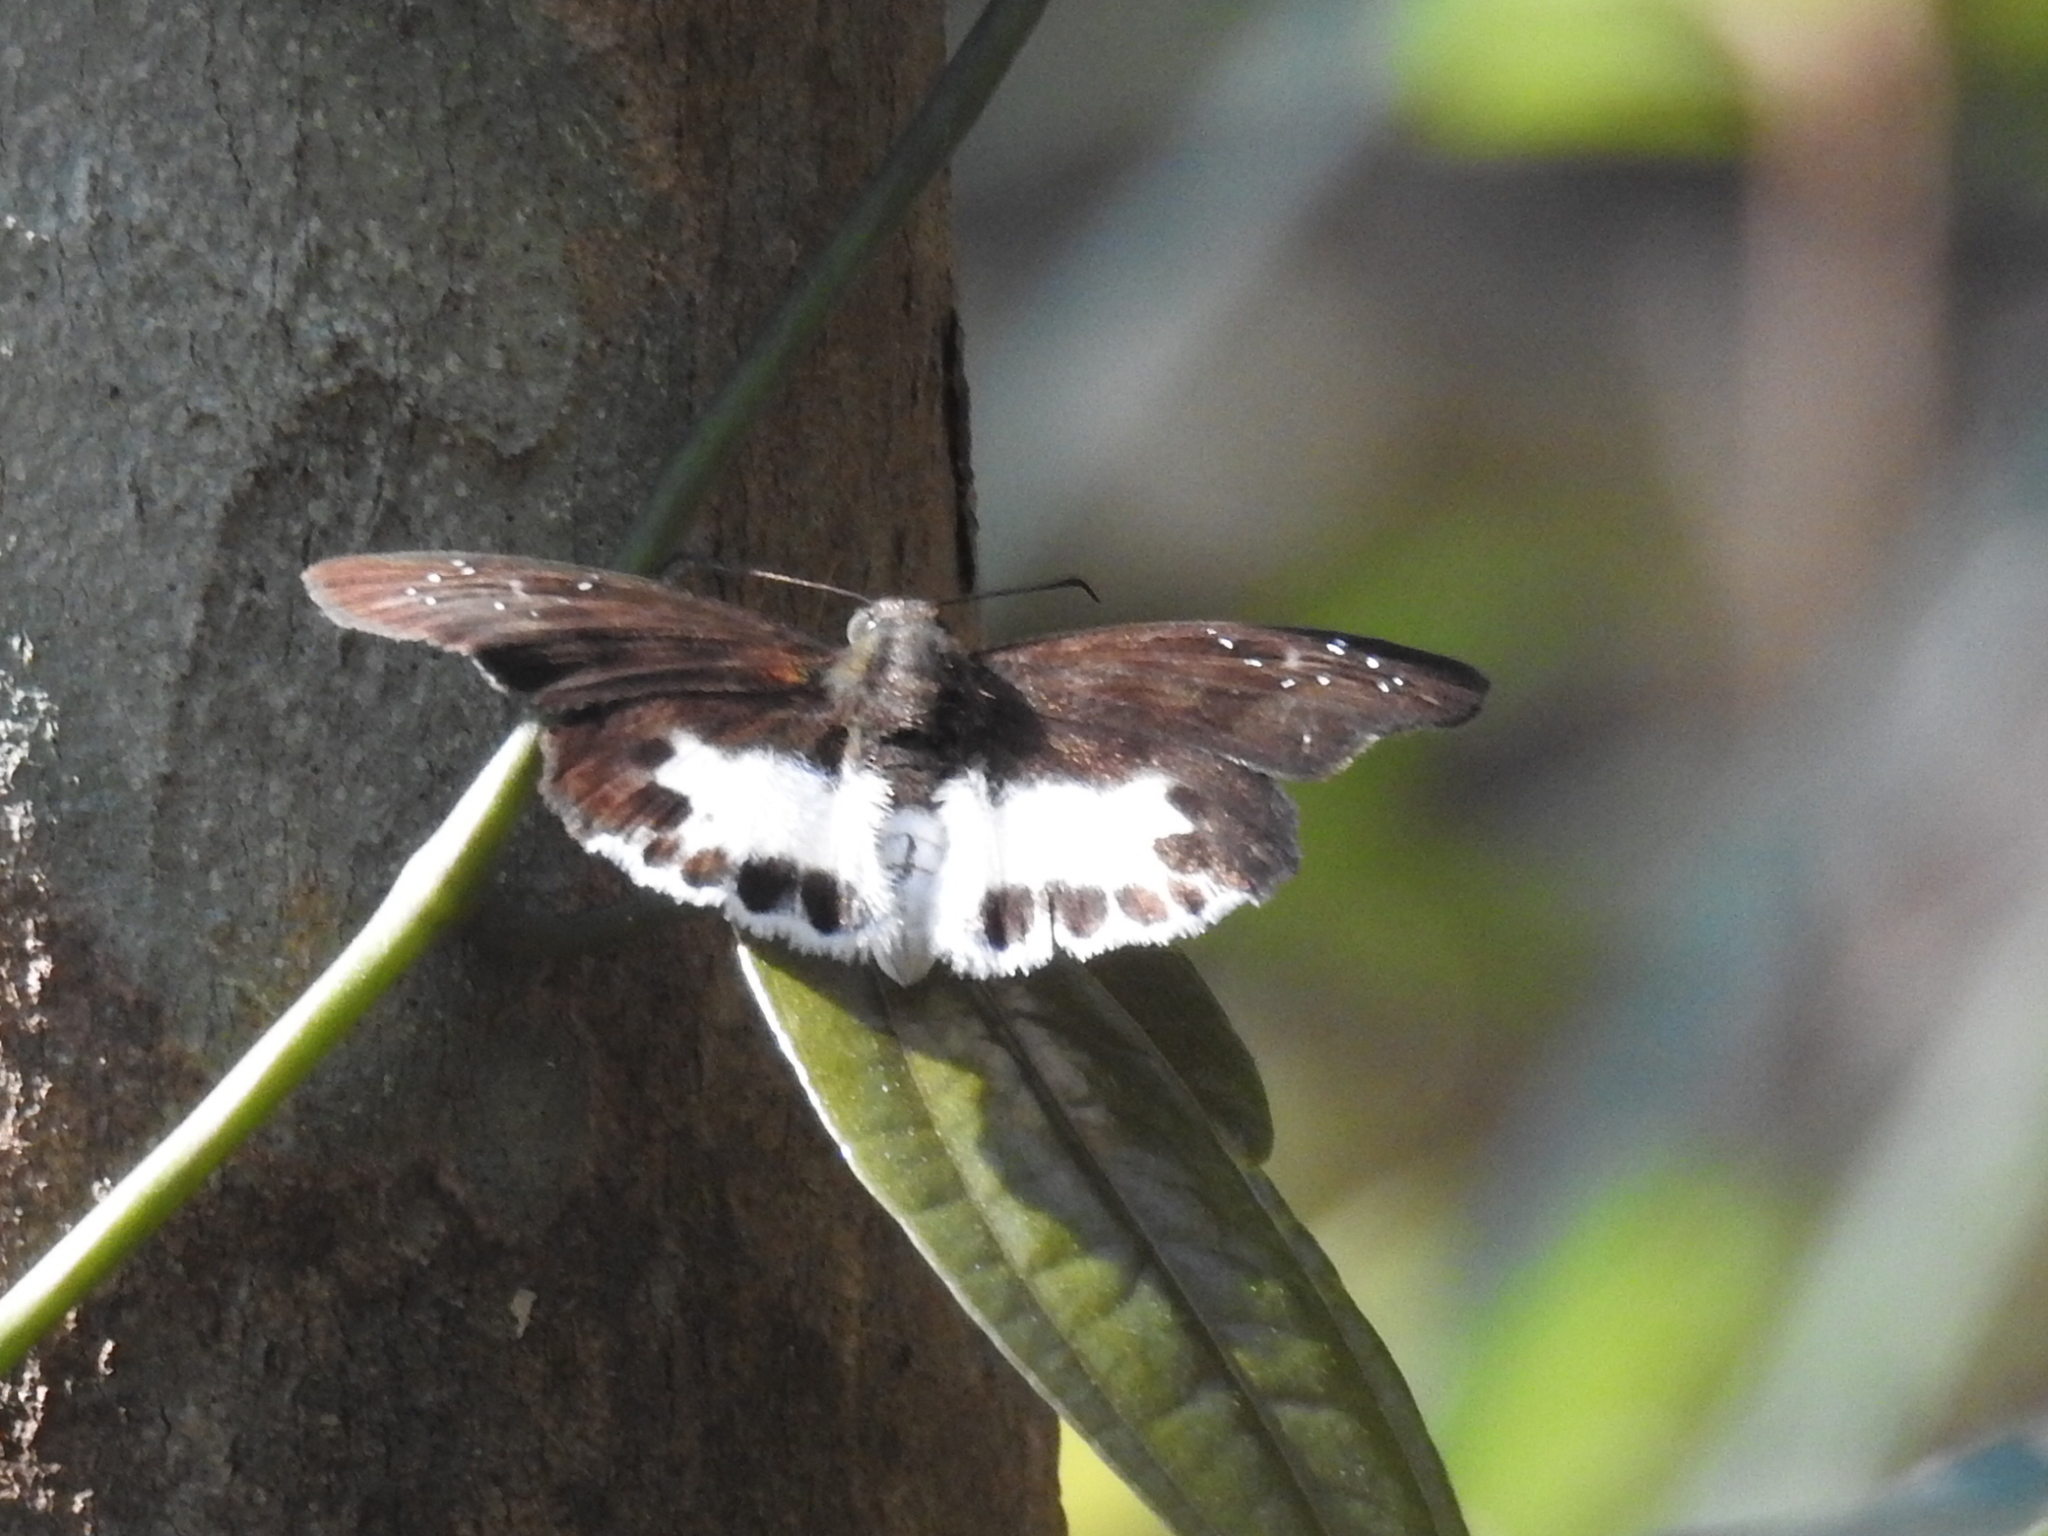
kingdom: Animalia
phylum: Arthropoda
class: Insecta
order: Lepidoptera
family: Hesperiidae
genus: Tagiades
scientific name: Tagiades litigiosa
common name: Water snow flat
